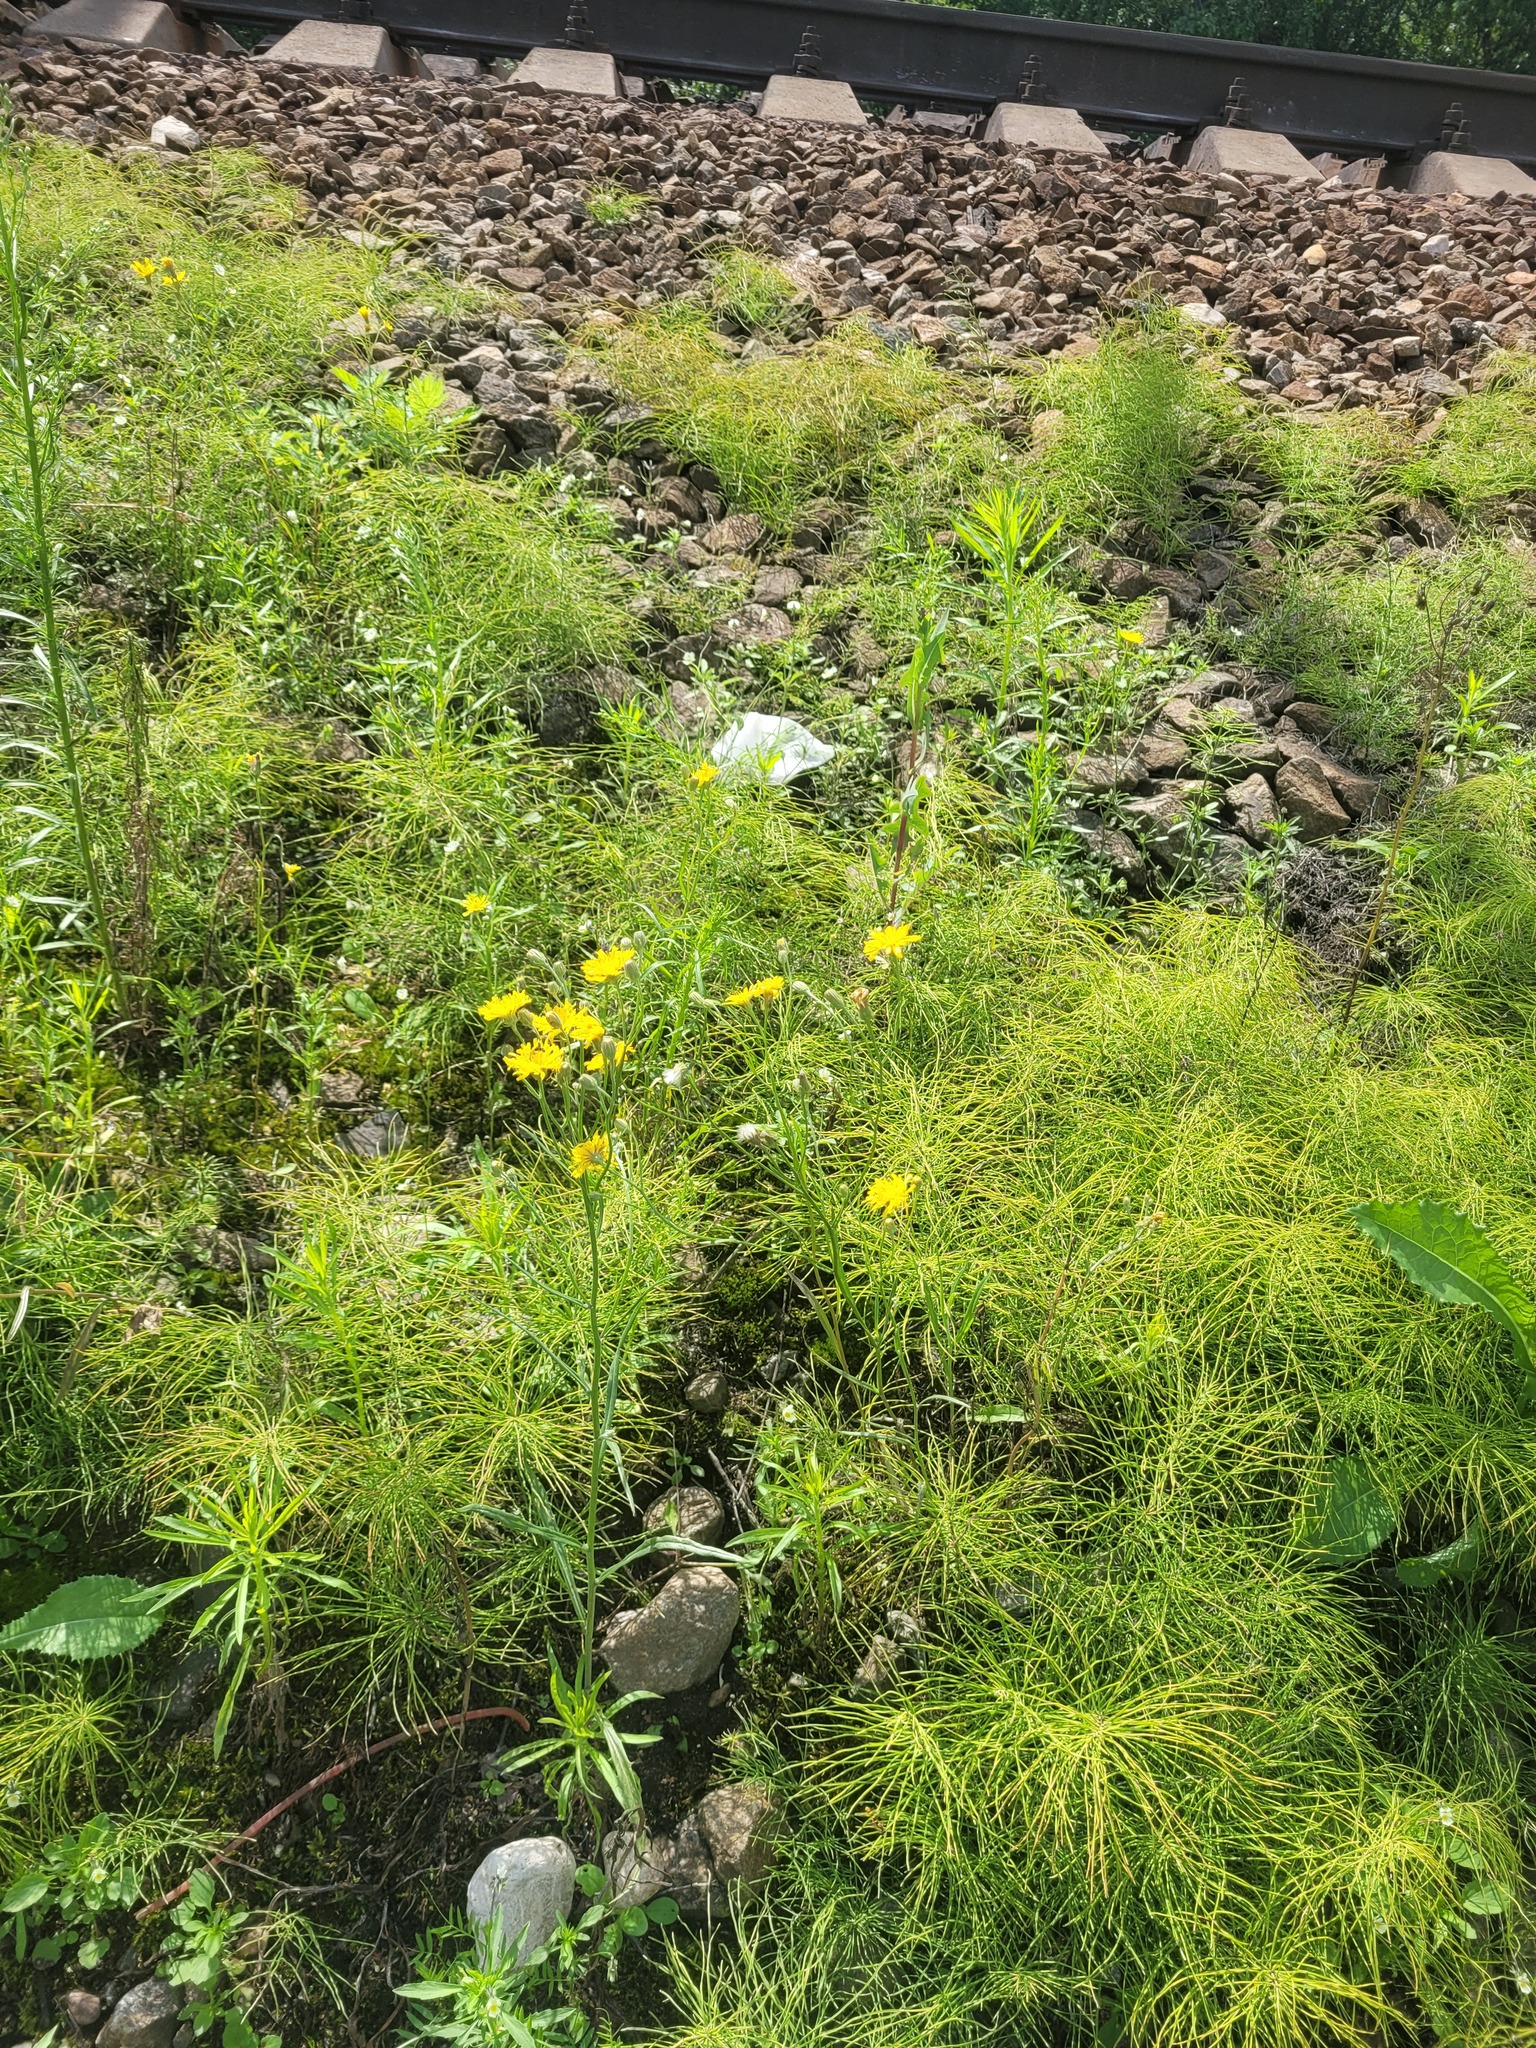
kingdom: Plantae
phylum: Tracheophyta
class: Magnoliopsida
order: Asterales
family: Asteraceae
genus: Crepis
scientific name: Crepis tectorum
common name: Narrow-leaved hawk's-beard
